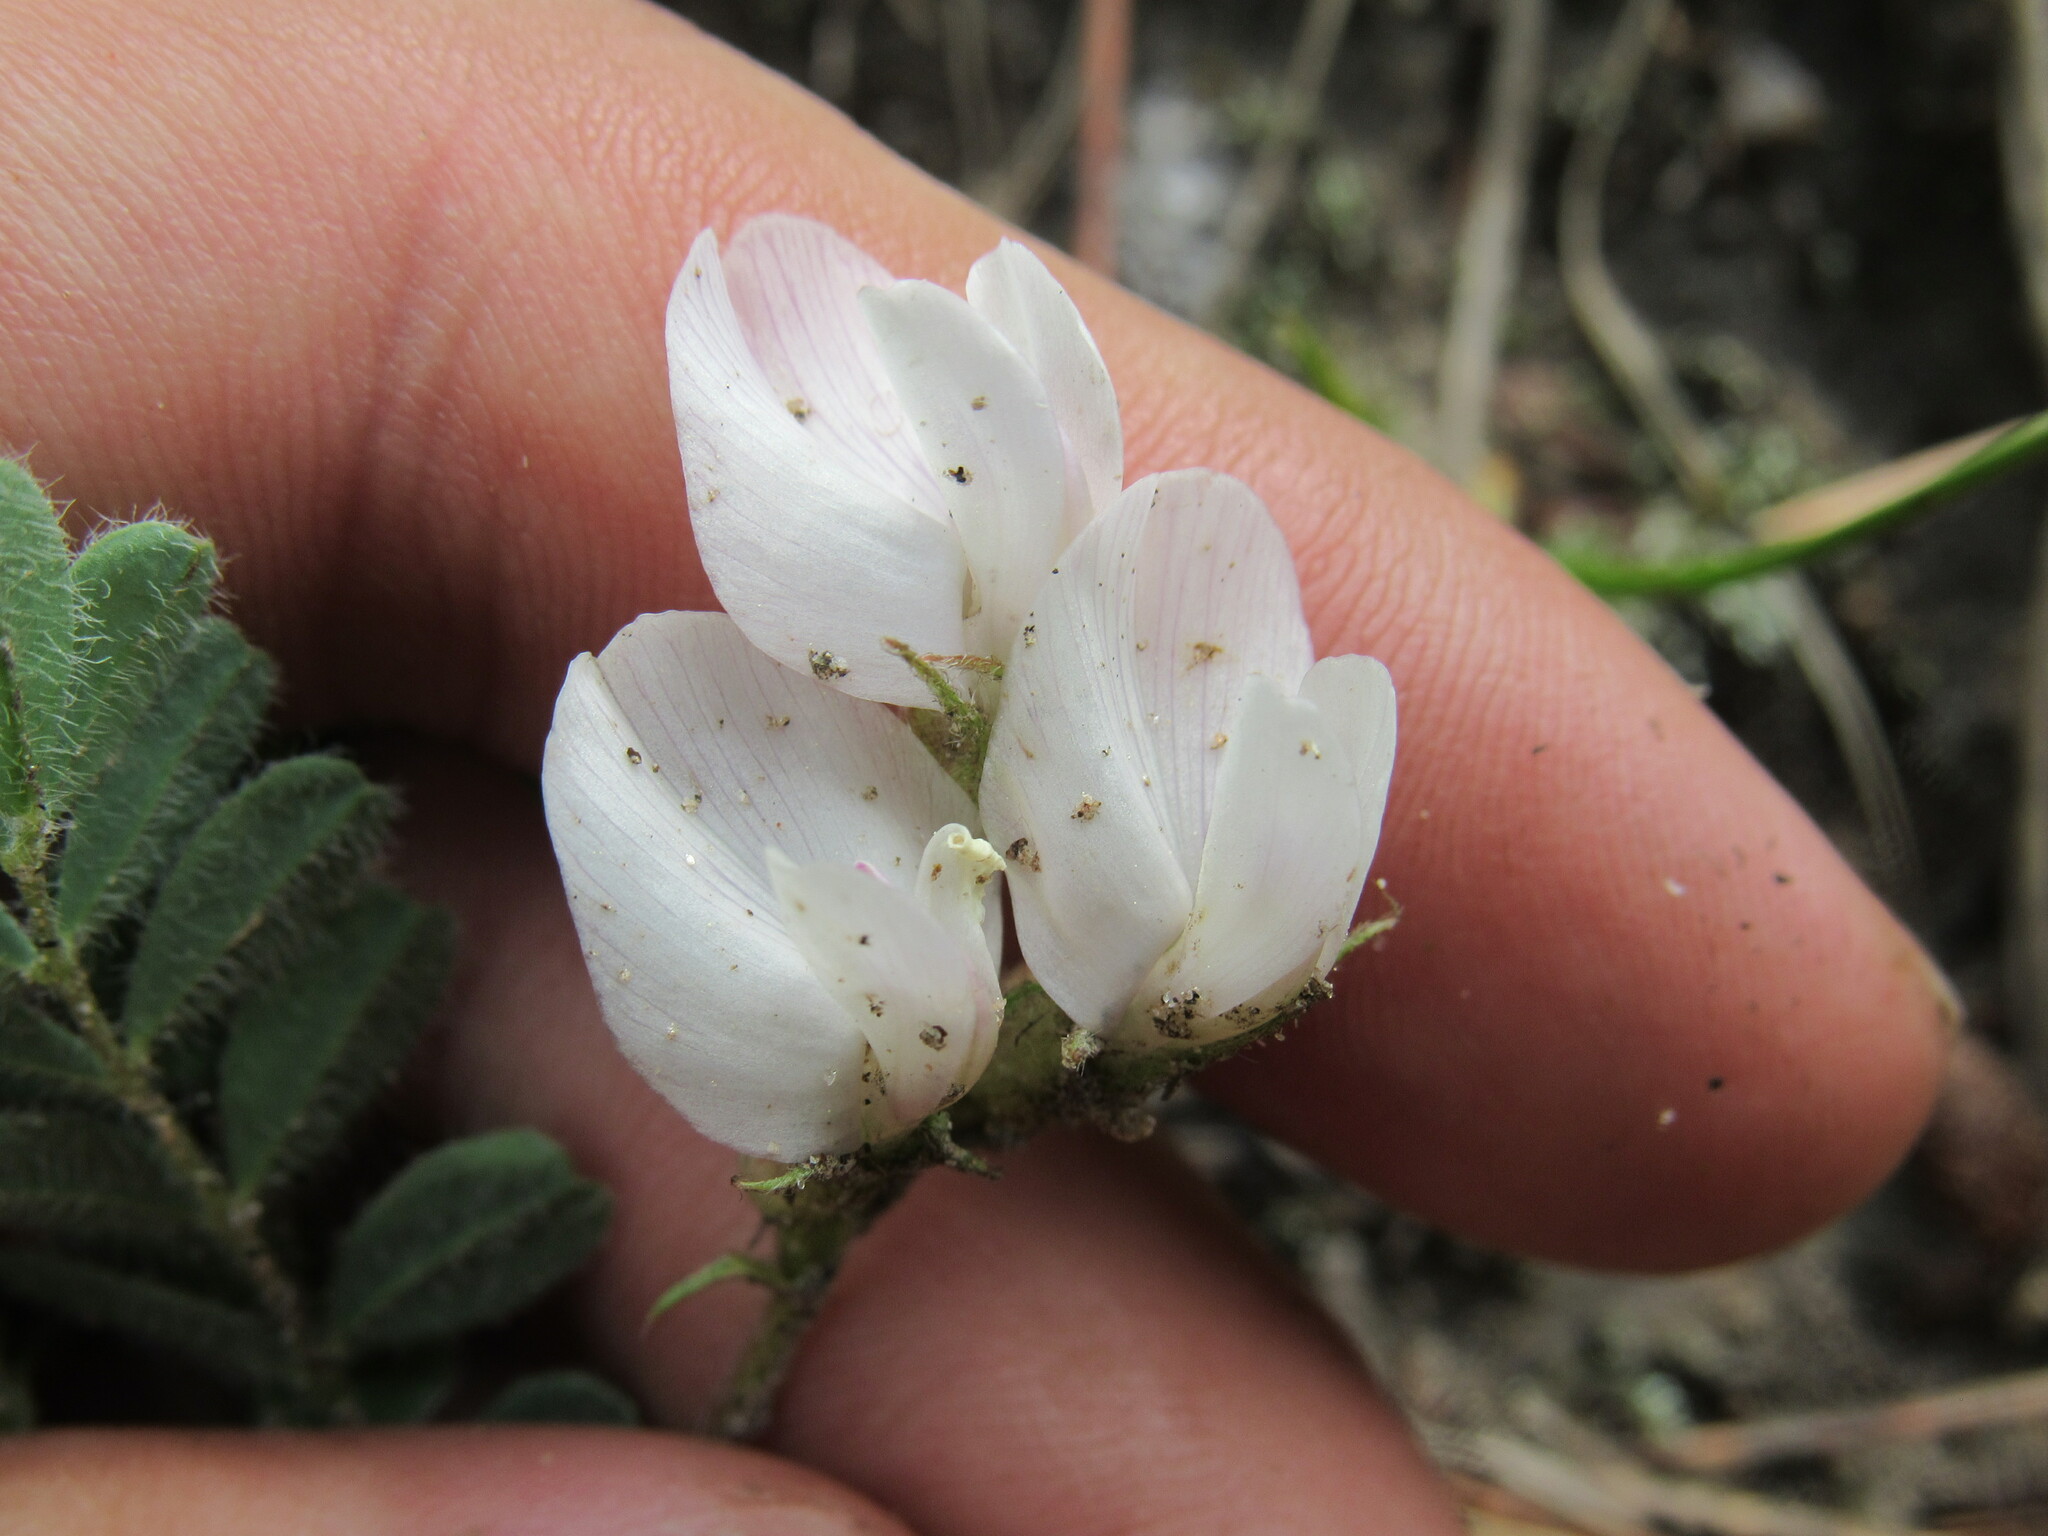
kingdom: Plantae
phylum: Tracheophyta
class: Magnoliopsida
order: Fabales
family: Fabaceae
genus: Astragalus
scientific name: Astragalus parryi
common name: Parry milk-vetch
